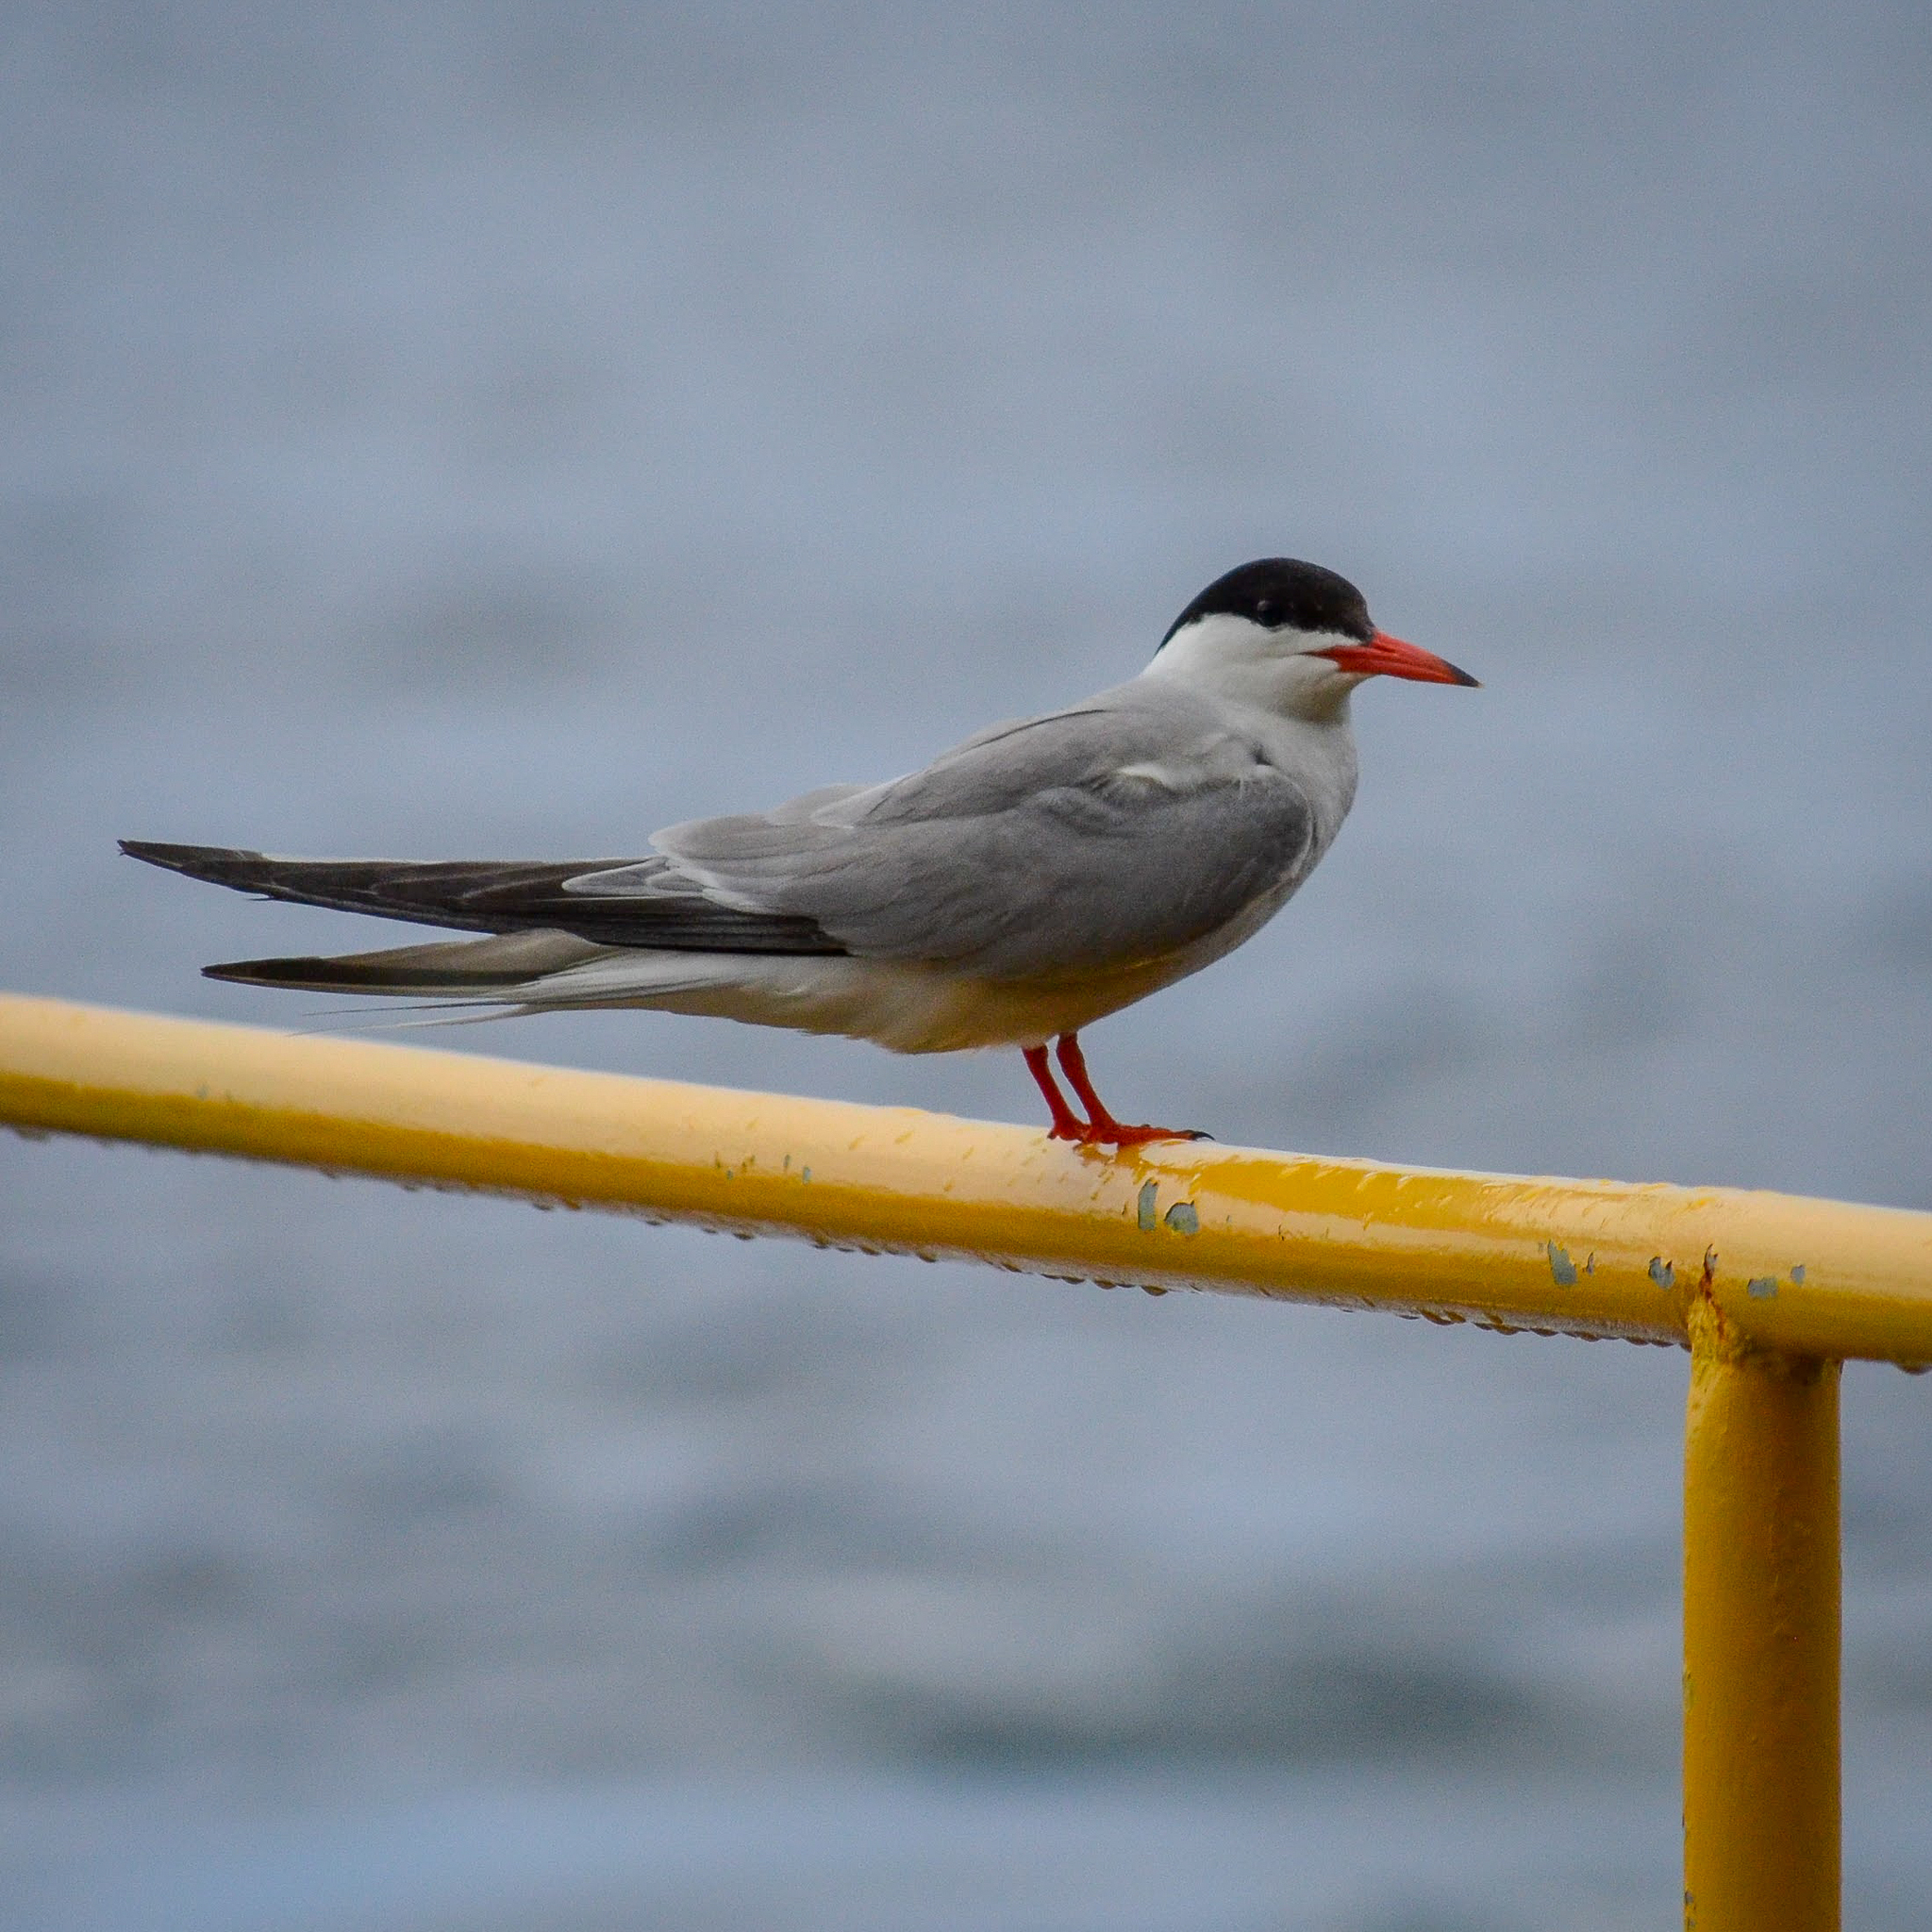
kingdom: Animalia
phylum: Chordata
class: Aves
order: Charadriiformes
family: Laridae
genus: Sterna
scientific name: Sterna hirundo
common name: Common tern
